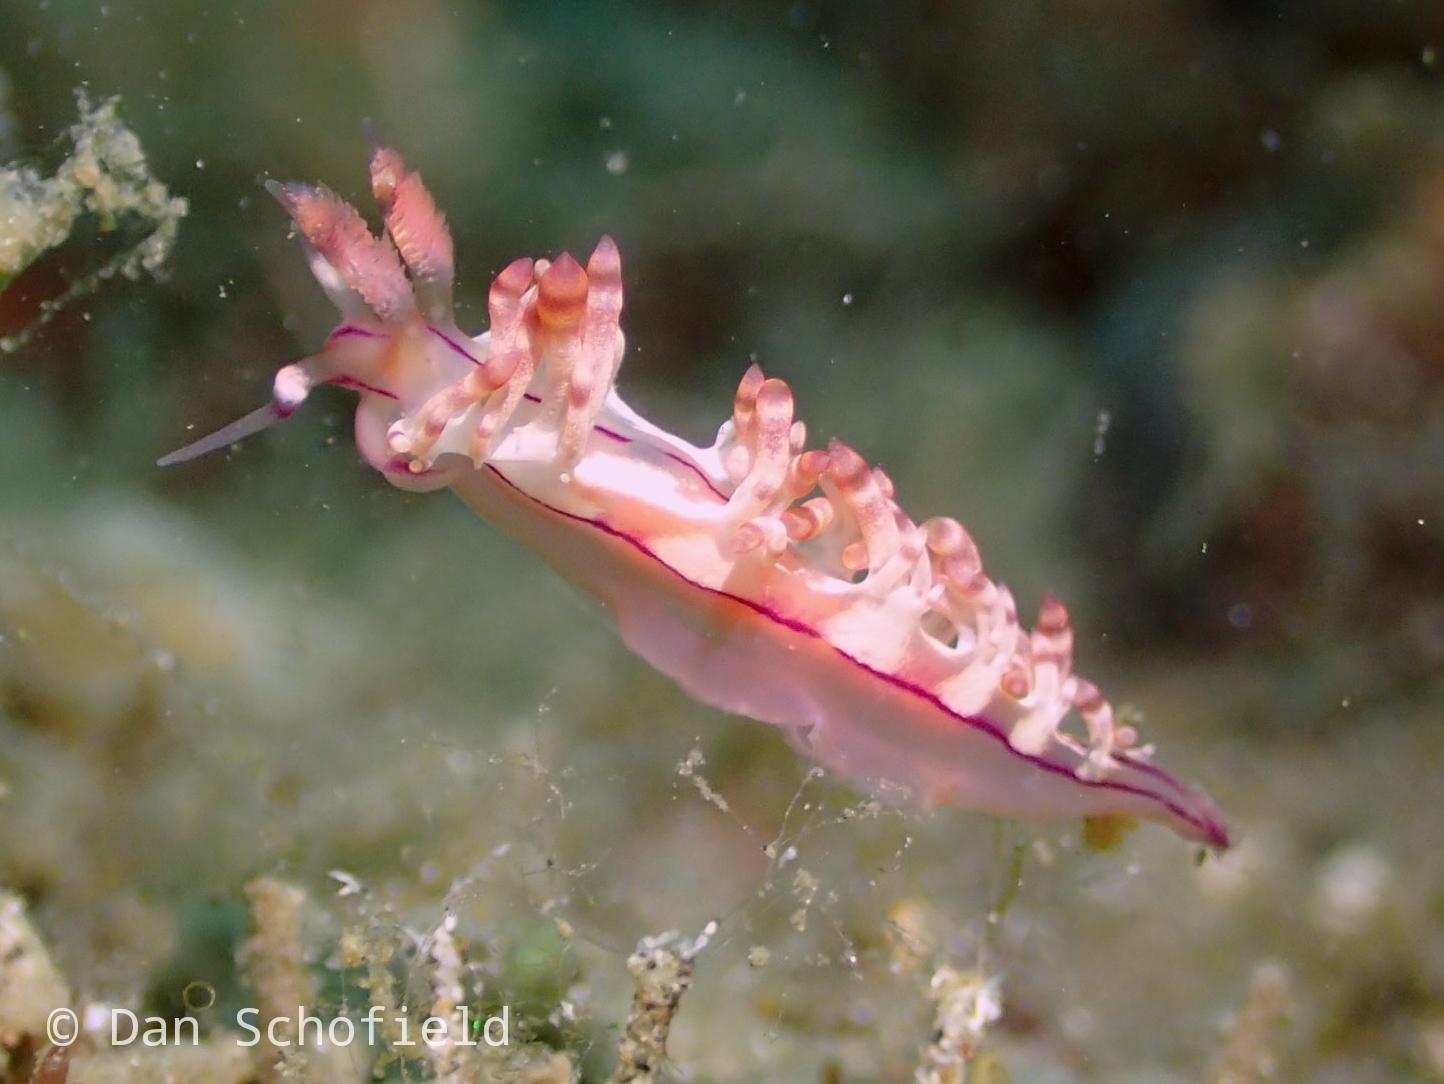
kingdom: Animalia
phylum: Mollusca
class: Gastropoda
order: Nudibranchia
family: Flabellinidae
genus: Coryphellina
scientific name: Coryphellina flamma
